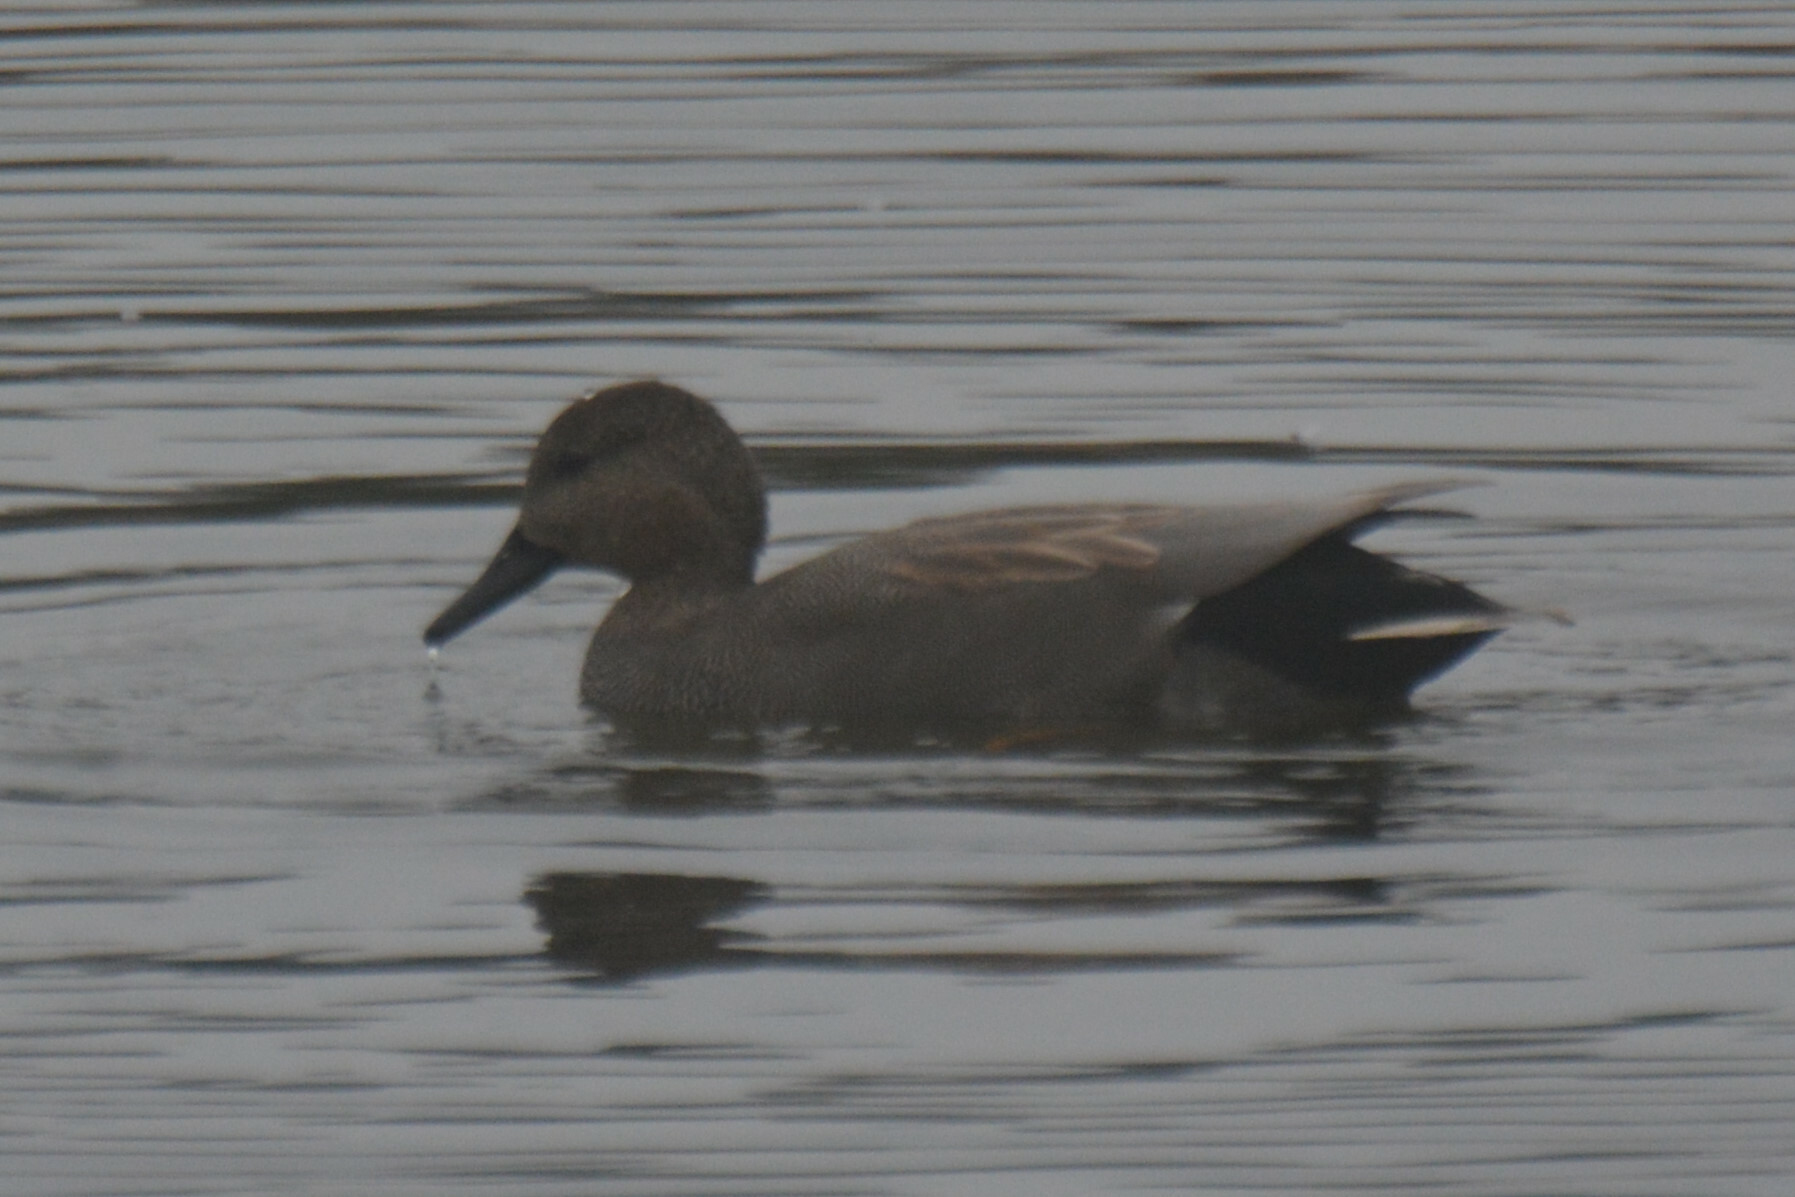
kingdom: Animalia
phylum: Chordata
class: Aves
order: Anseriformes
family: Anatidae
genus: Mareca
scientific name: Mareca strepera
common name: Gadwall
